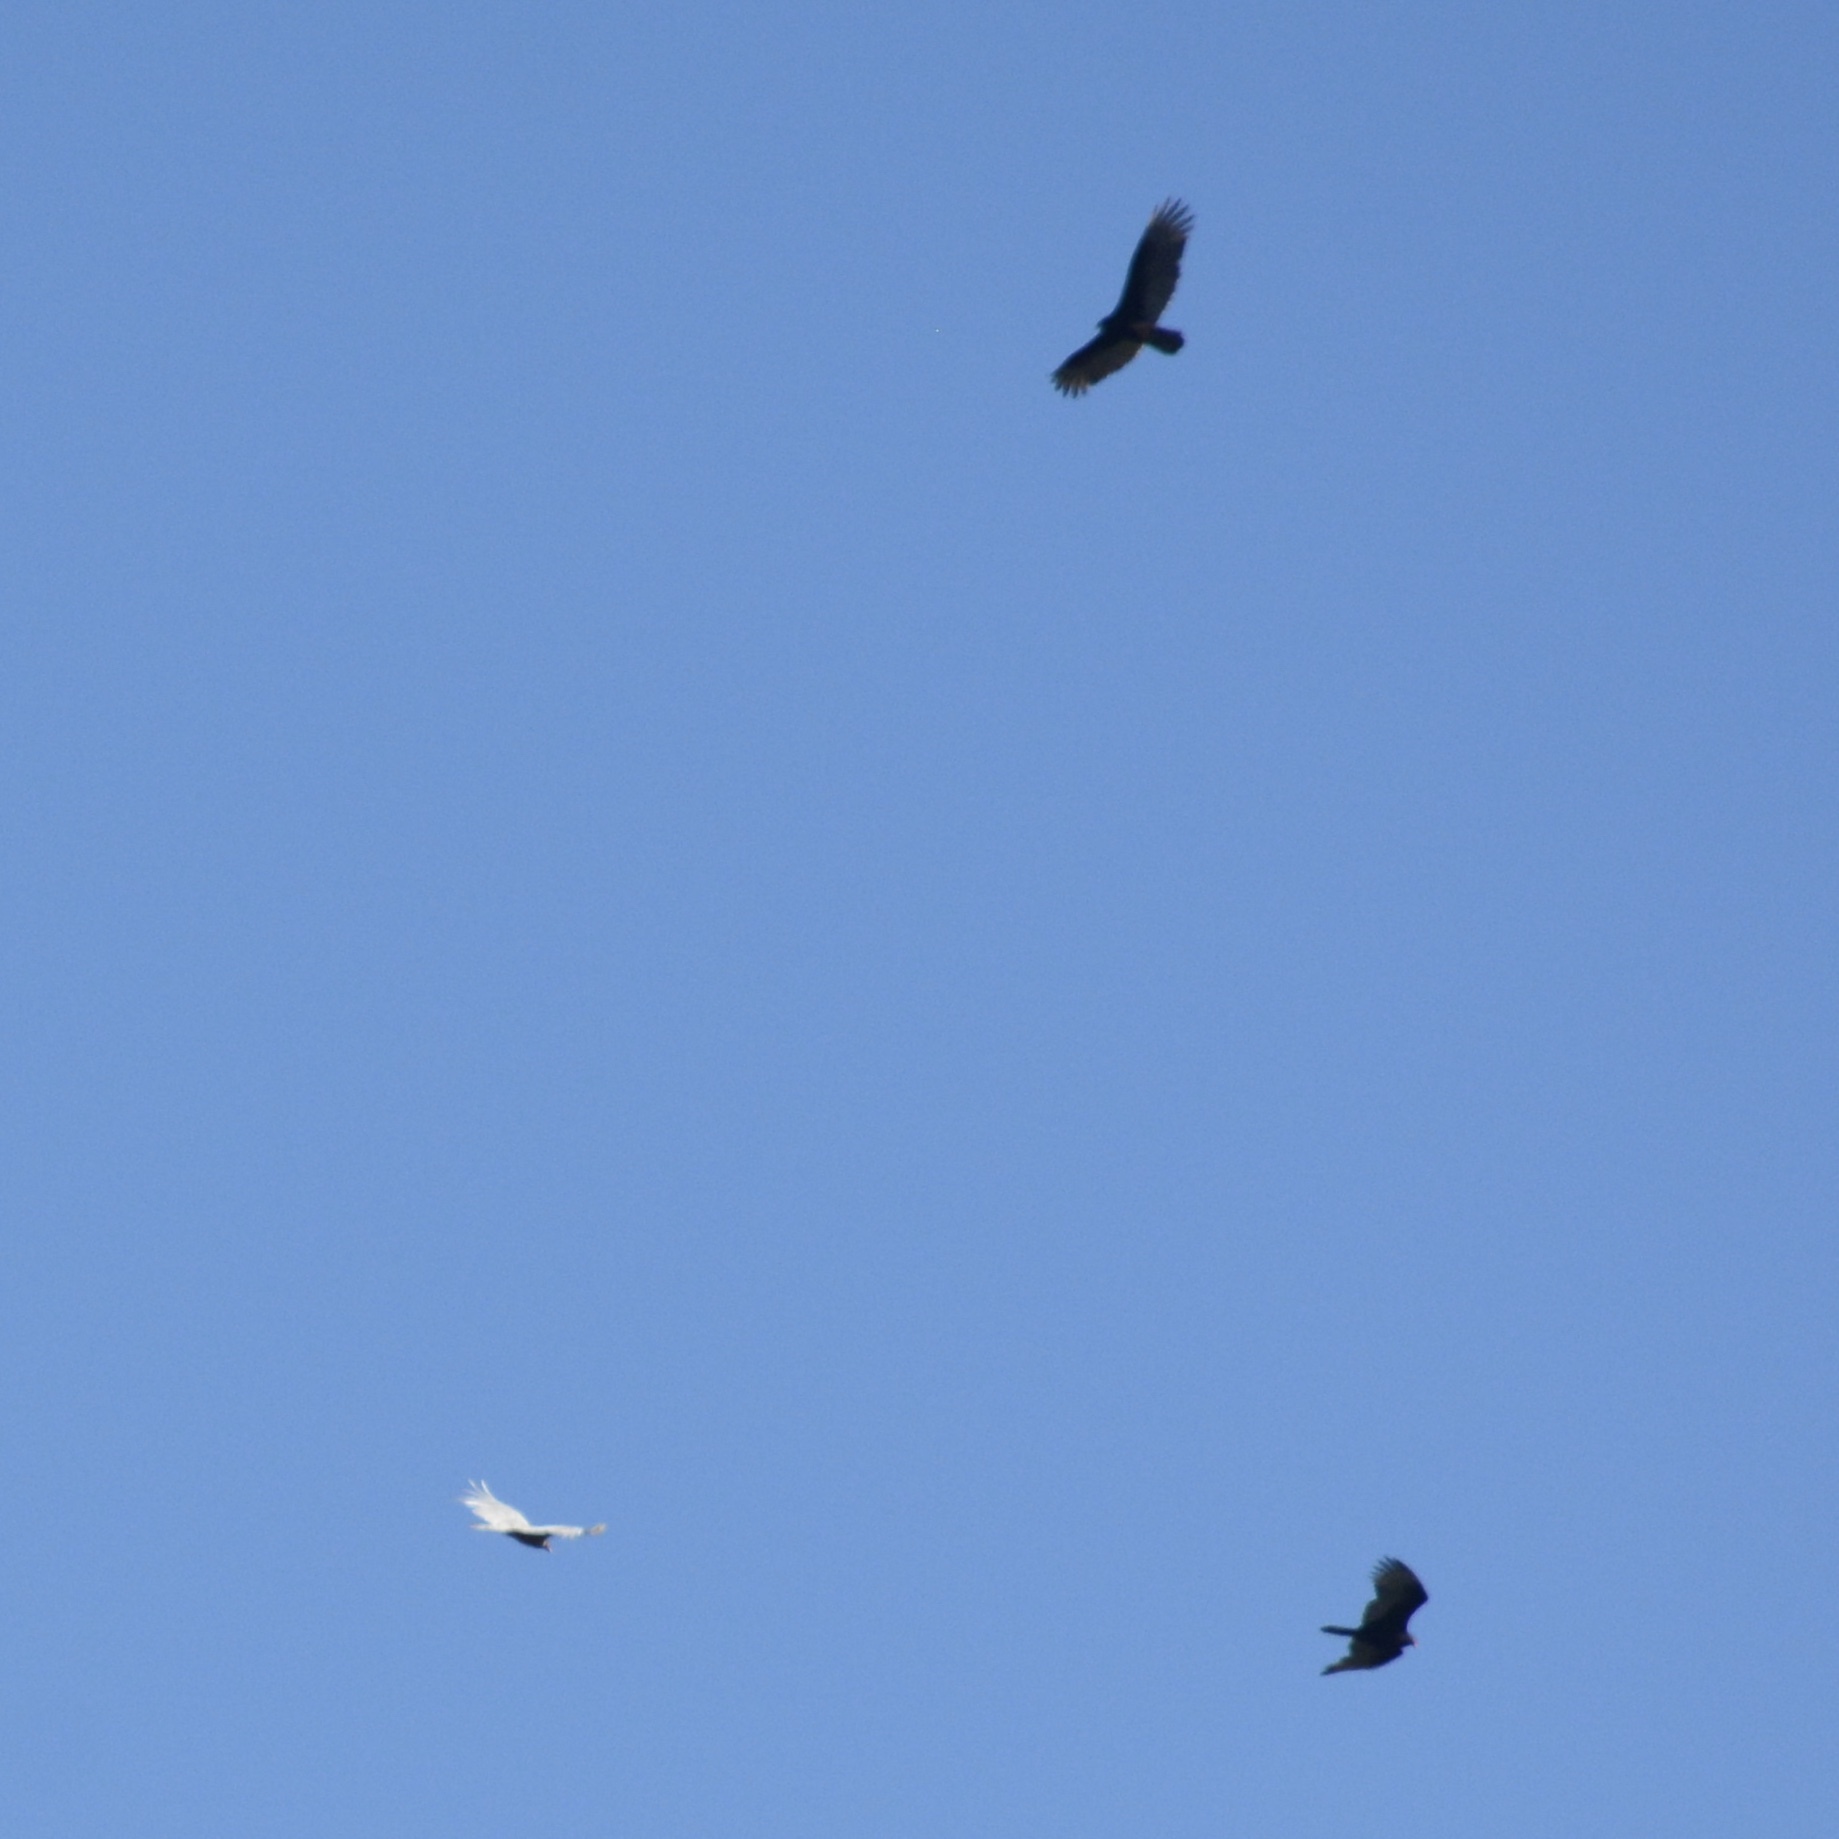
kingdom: Animalia
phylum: Chordata
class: Aves
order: Accipitriformes
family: Cathartidae
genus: Cathartes
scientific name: Cathartes aura
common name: Turkey vulture
